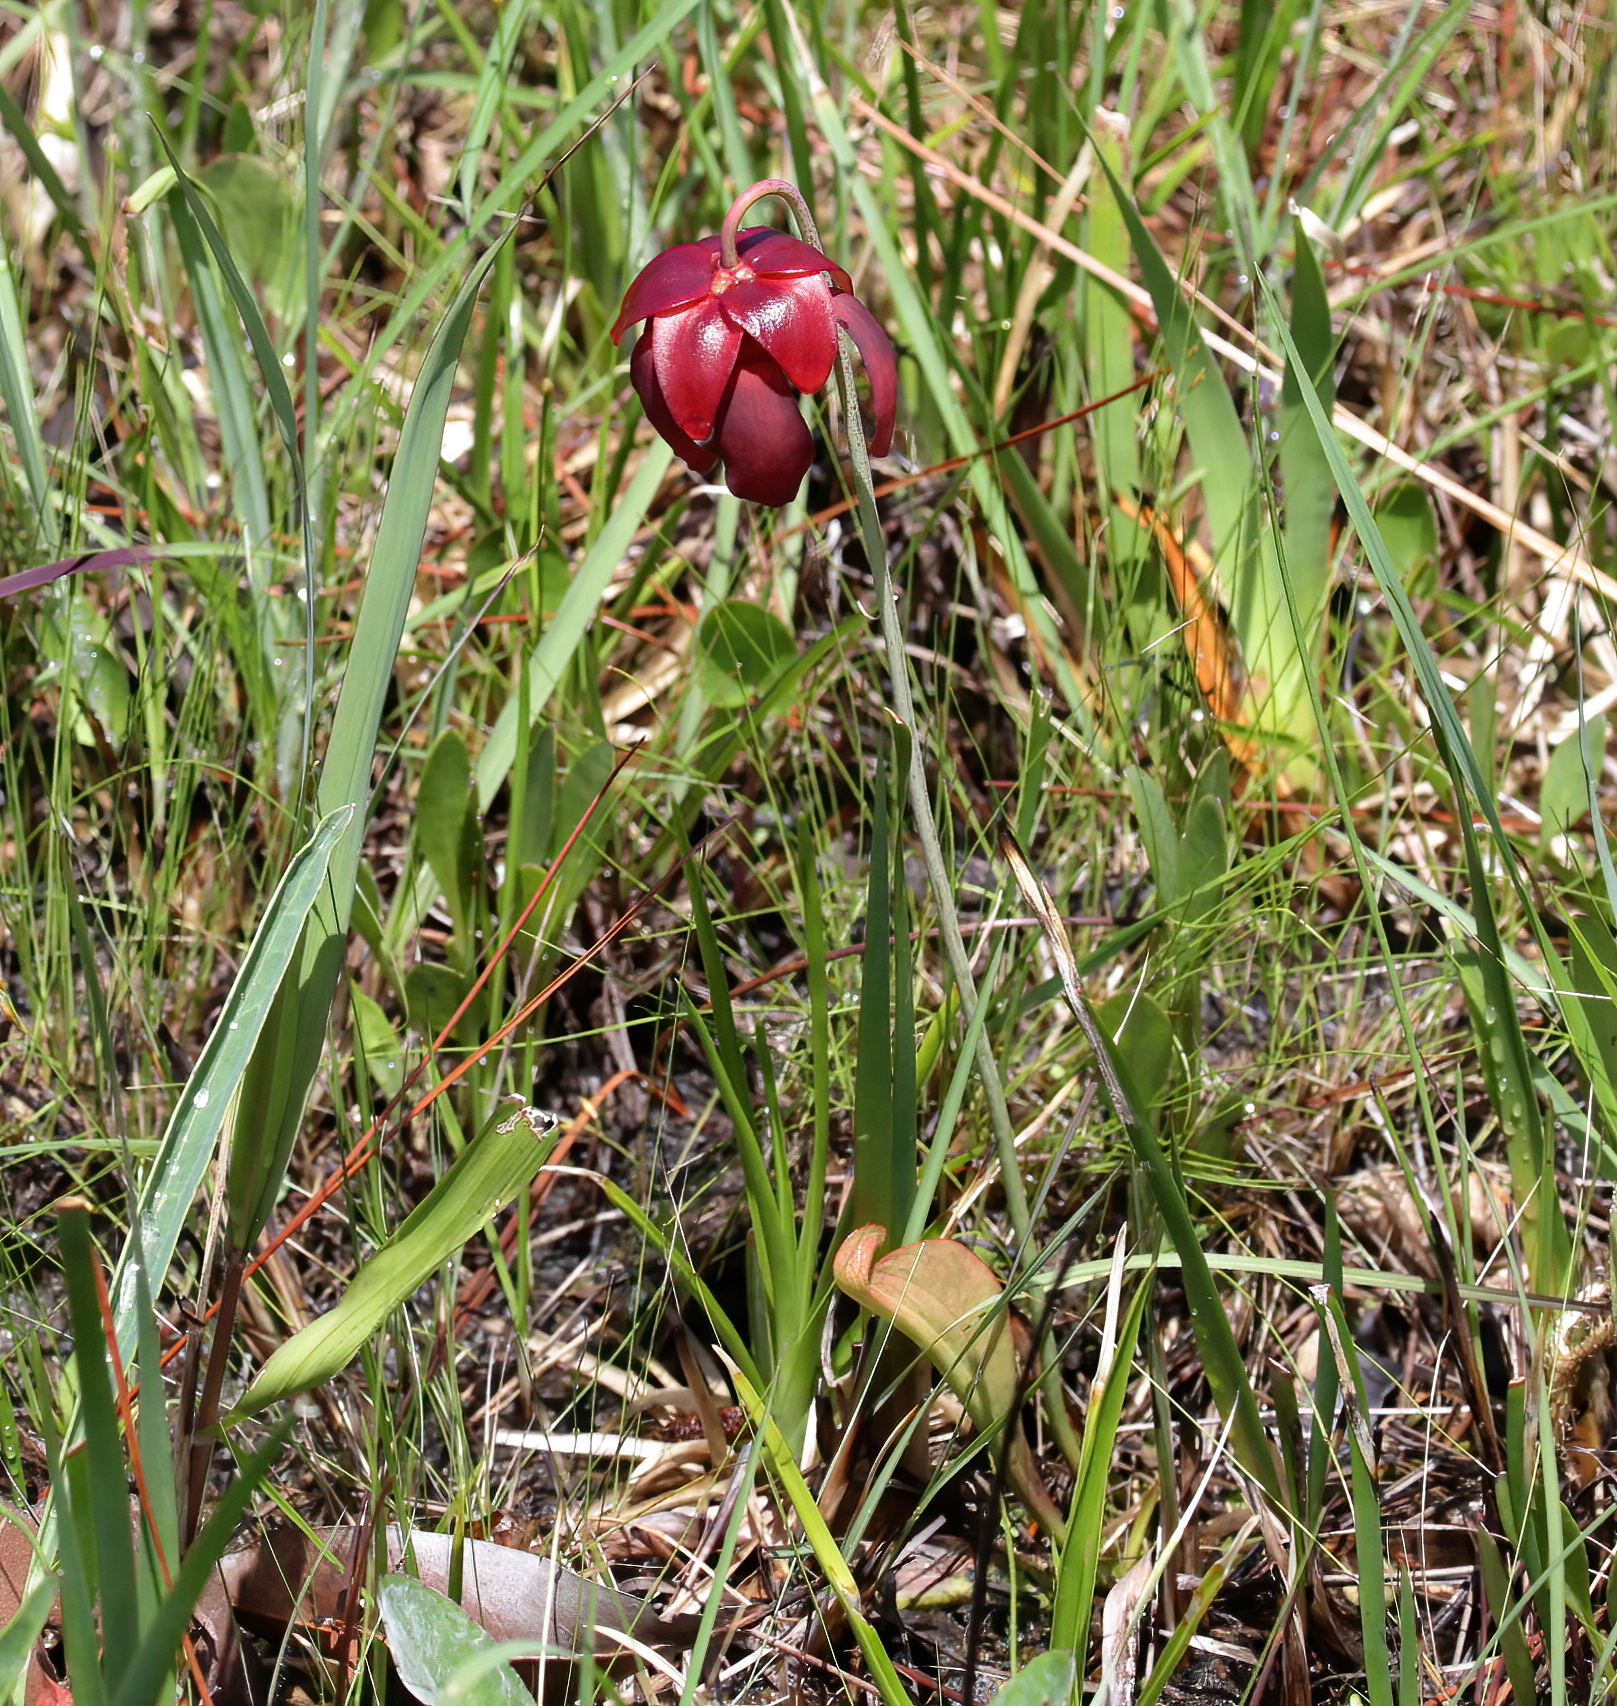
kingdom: Plantae
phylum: Tracheophyta
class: Magnoliopsida
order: Ericales
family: Sarraceniaceae
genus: Sarracenia
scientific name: Sarracenia psittacina
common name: Parrot pitcherplant
